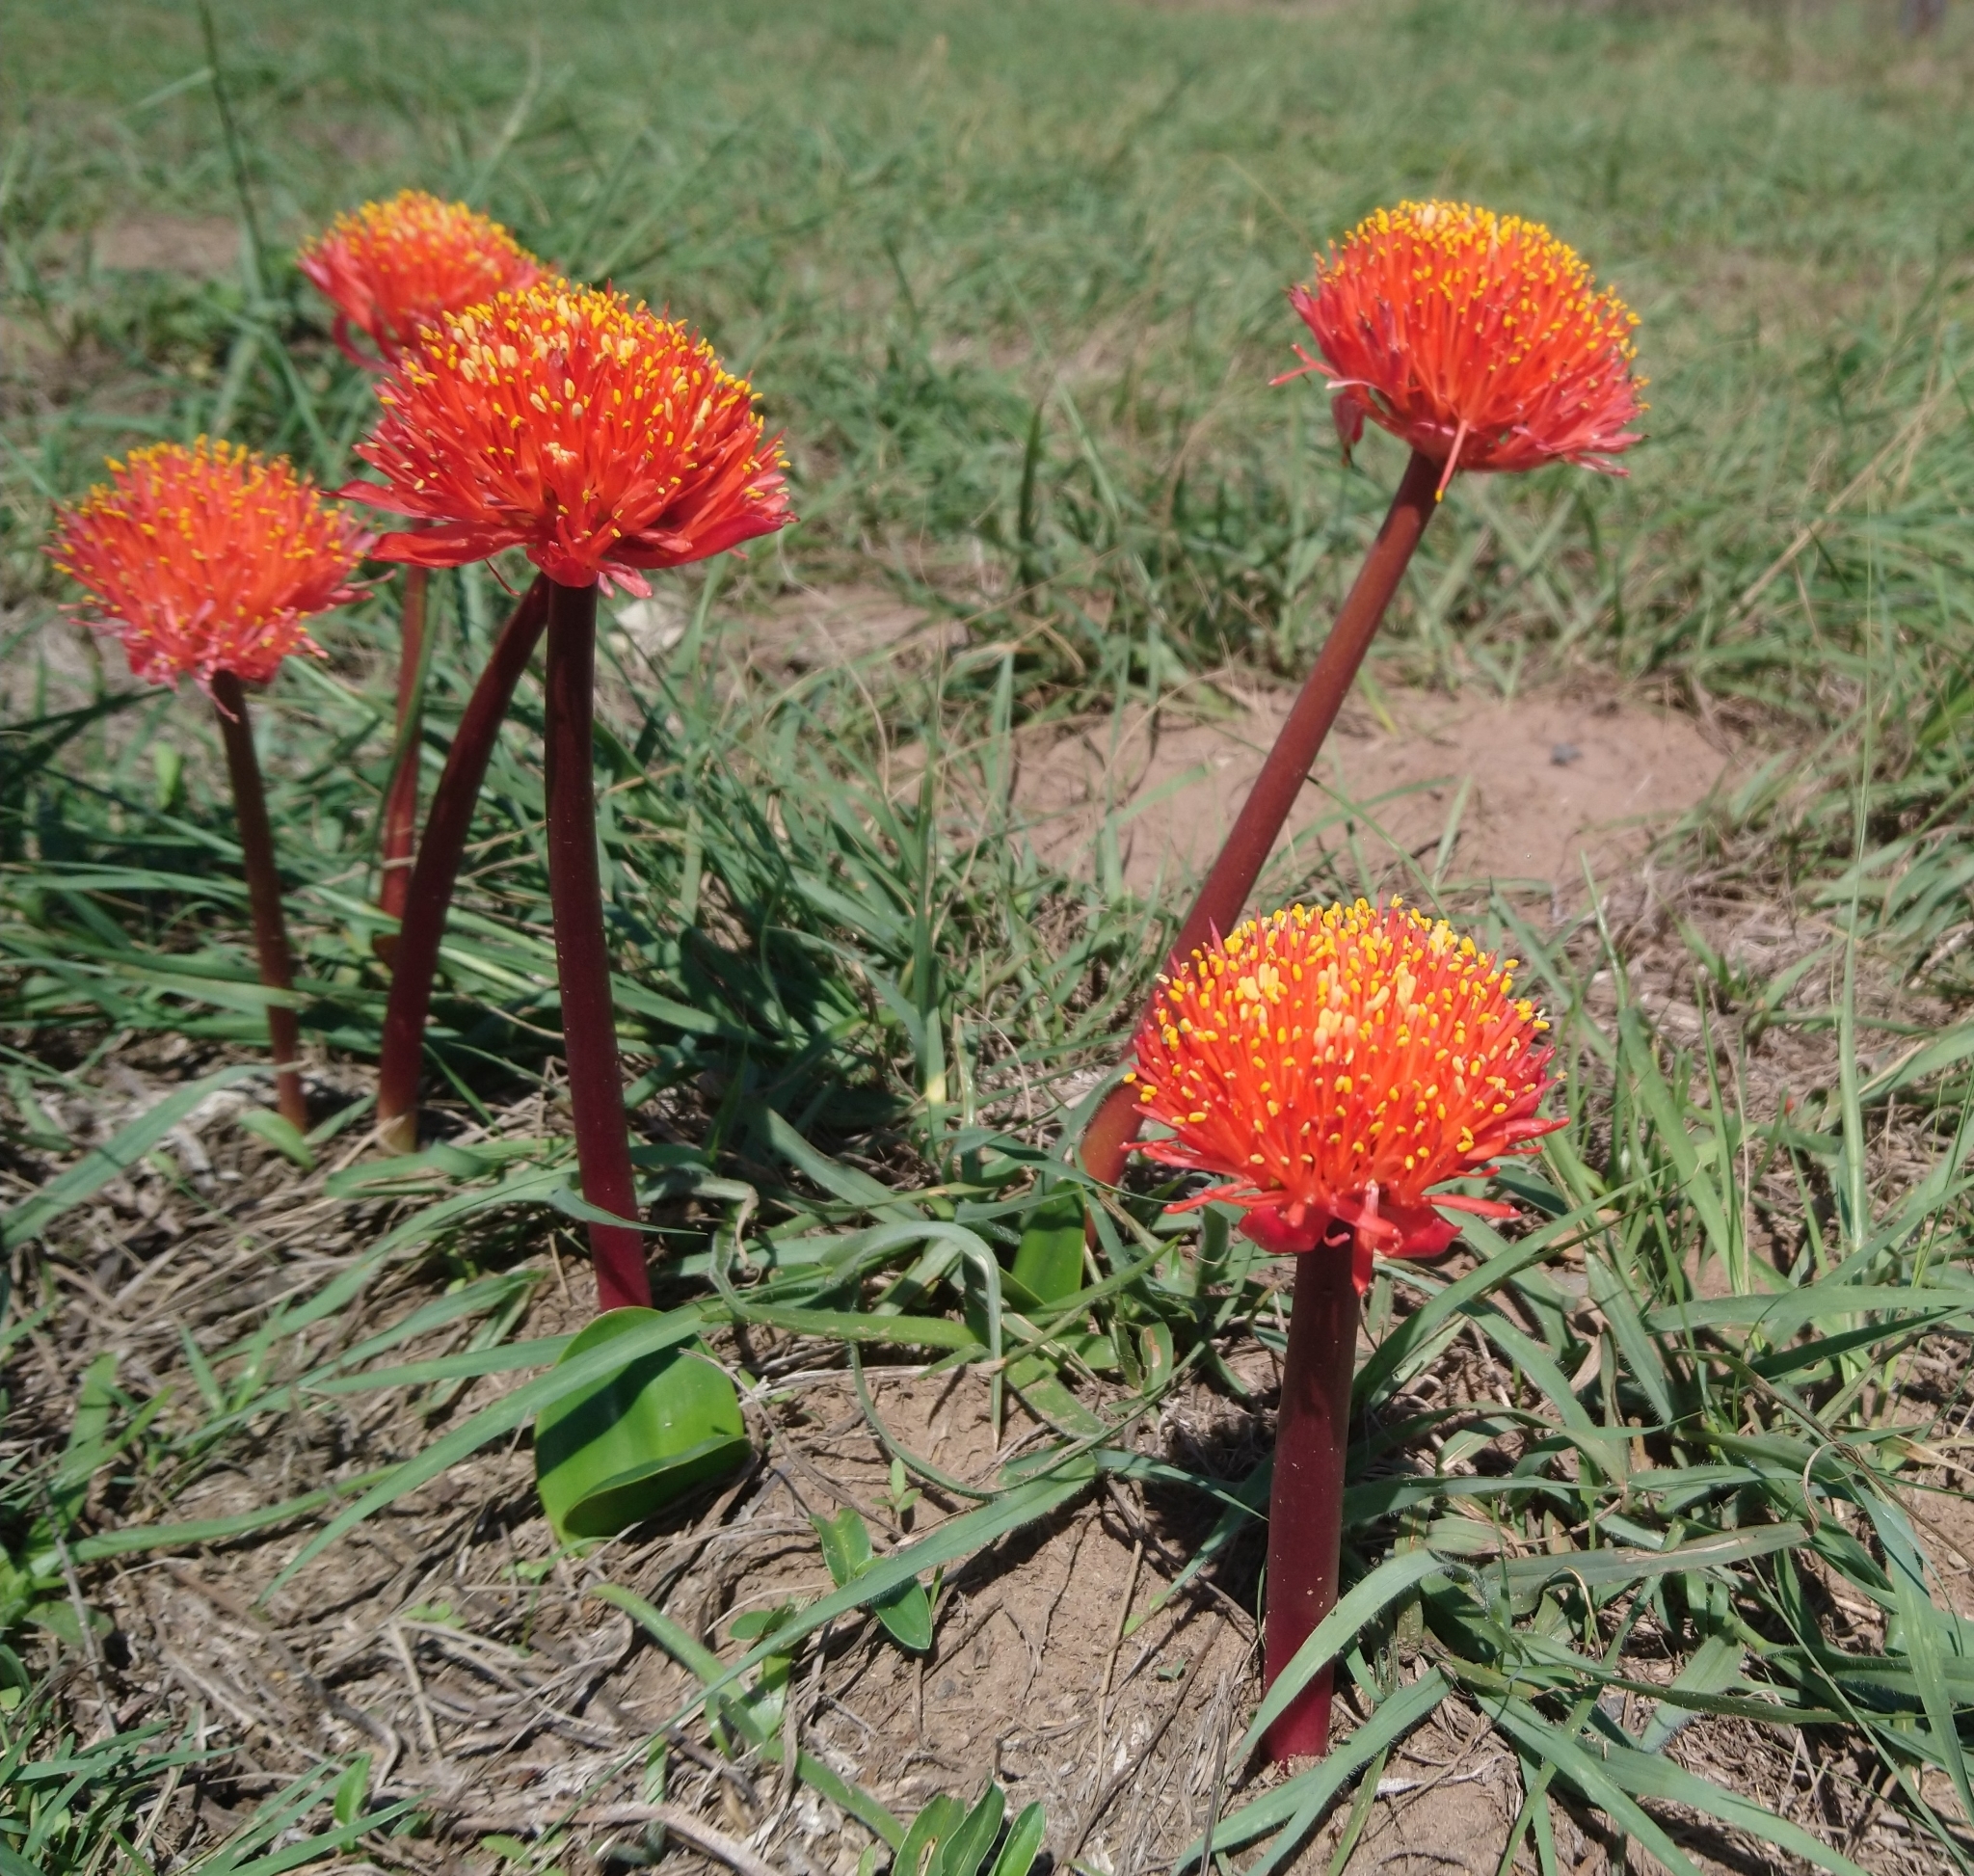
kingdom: Plantae
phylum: Tracheophyta
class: Liliopsida
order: Asparagales
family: Amaryllidaceae
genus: Haemanthus
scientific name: Haemanthus coccineus
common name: Cape-tulip
